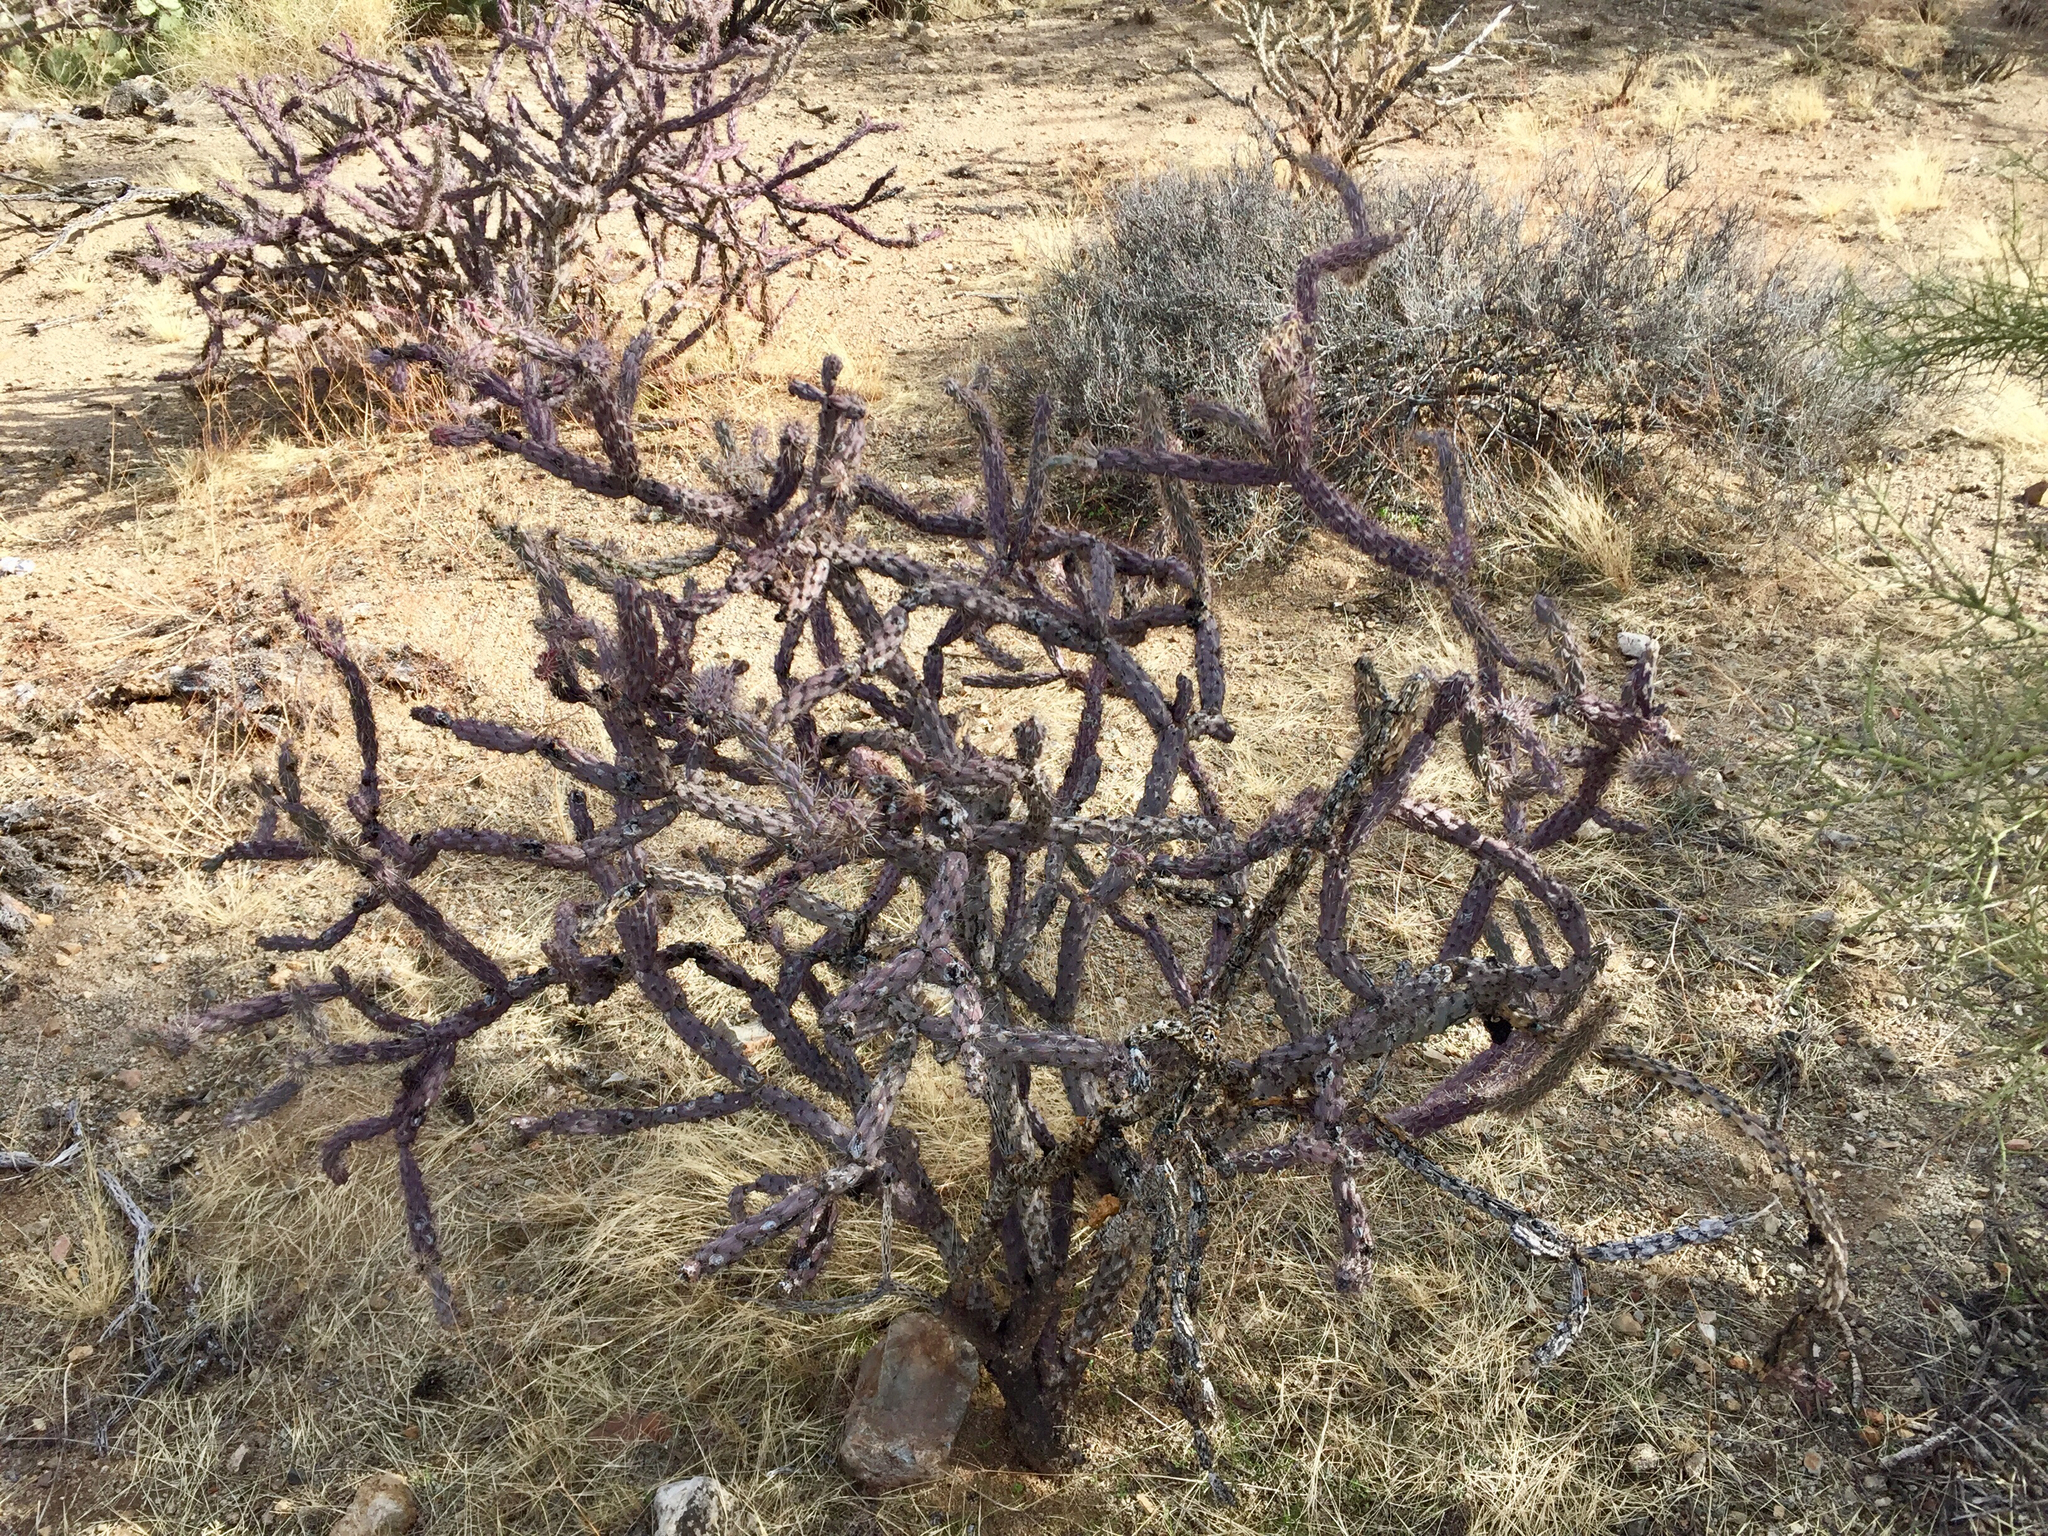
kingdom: Plantae
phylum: Tracheophyta
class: Magnoliopsida
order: Caryophyllales
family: Cactaceae
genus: Cylindropuntia
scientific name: Cylindropuntia thurberi
